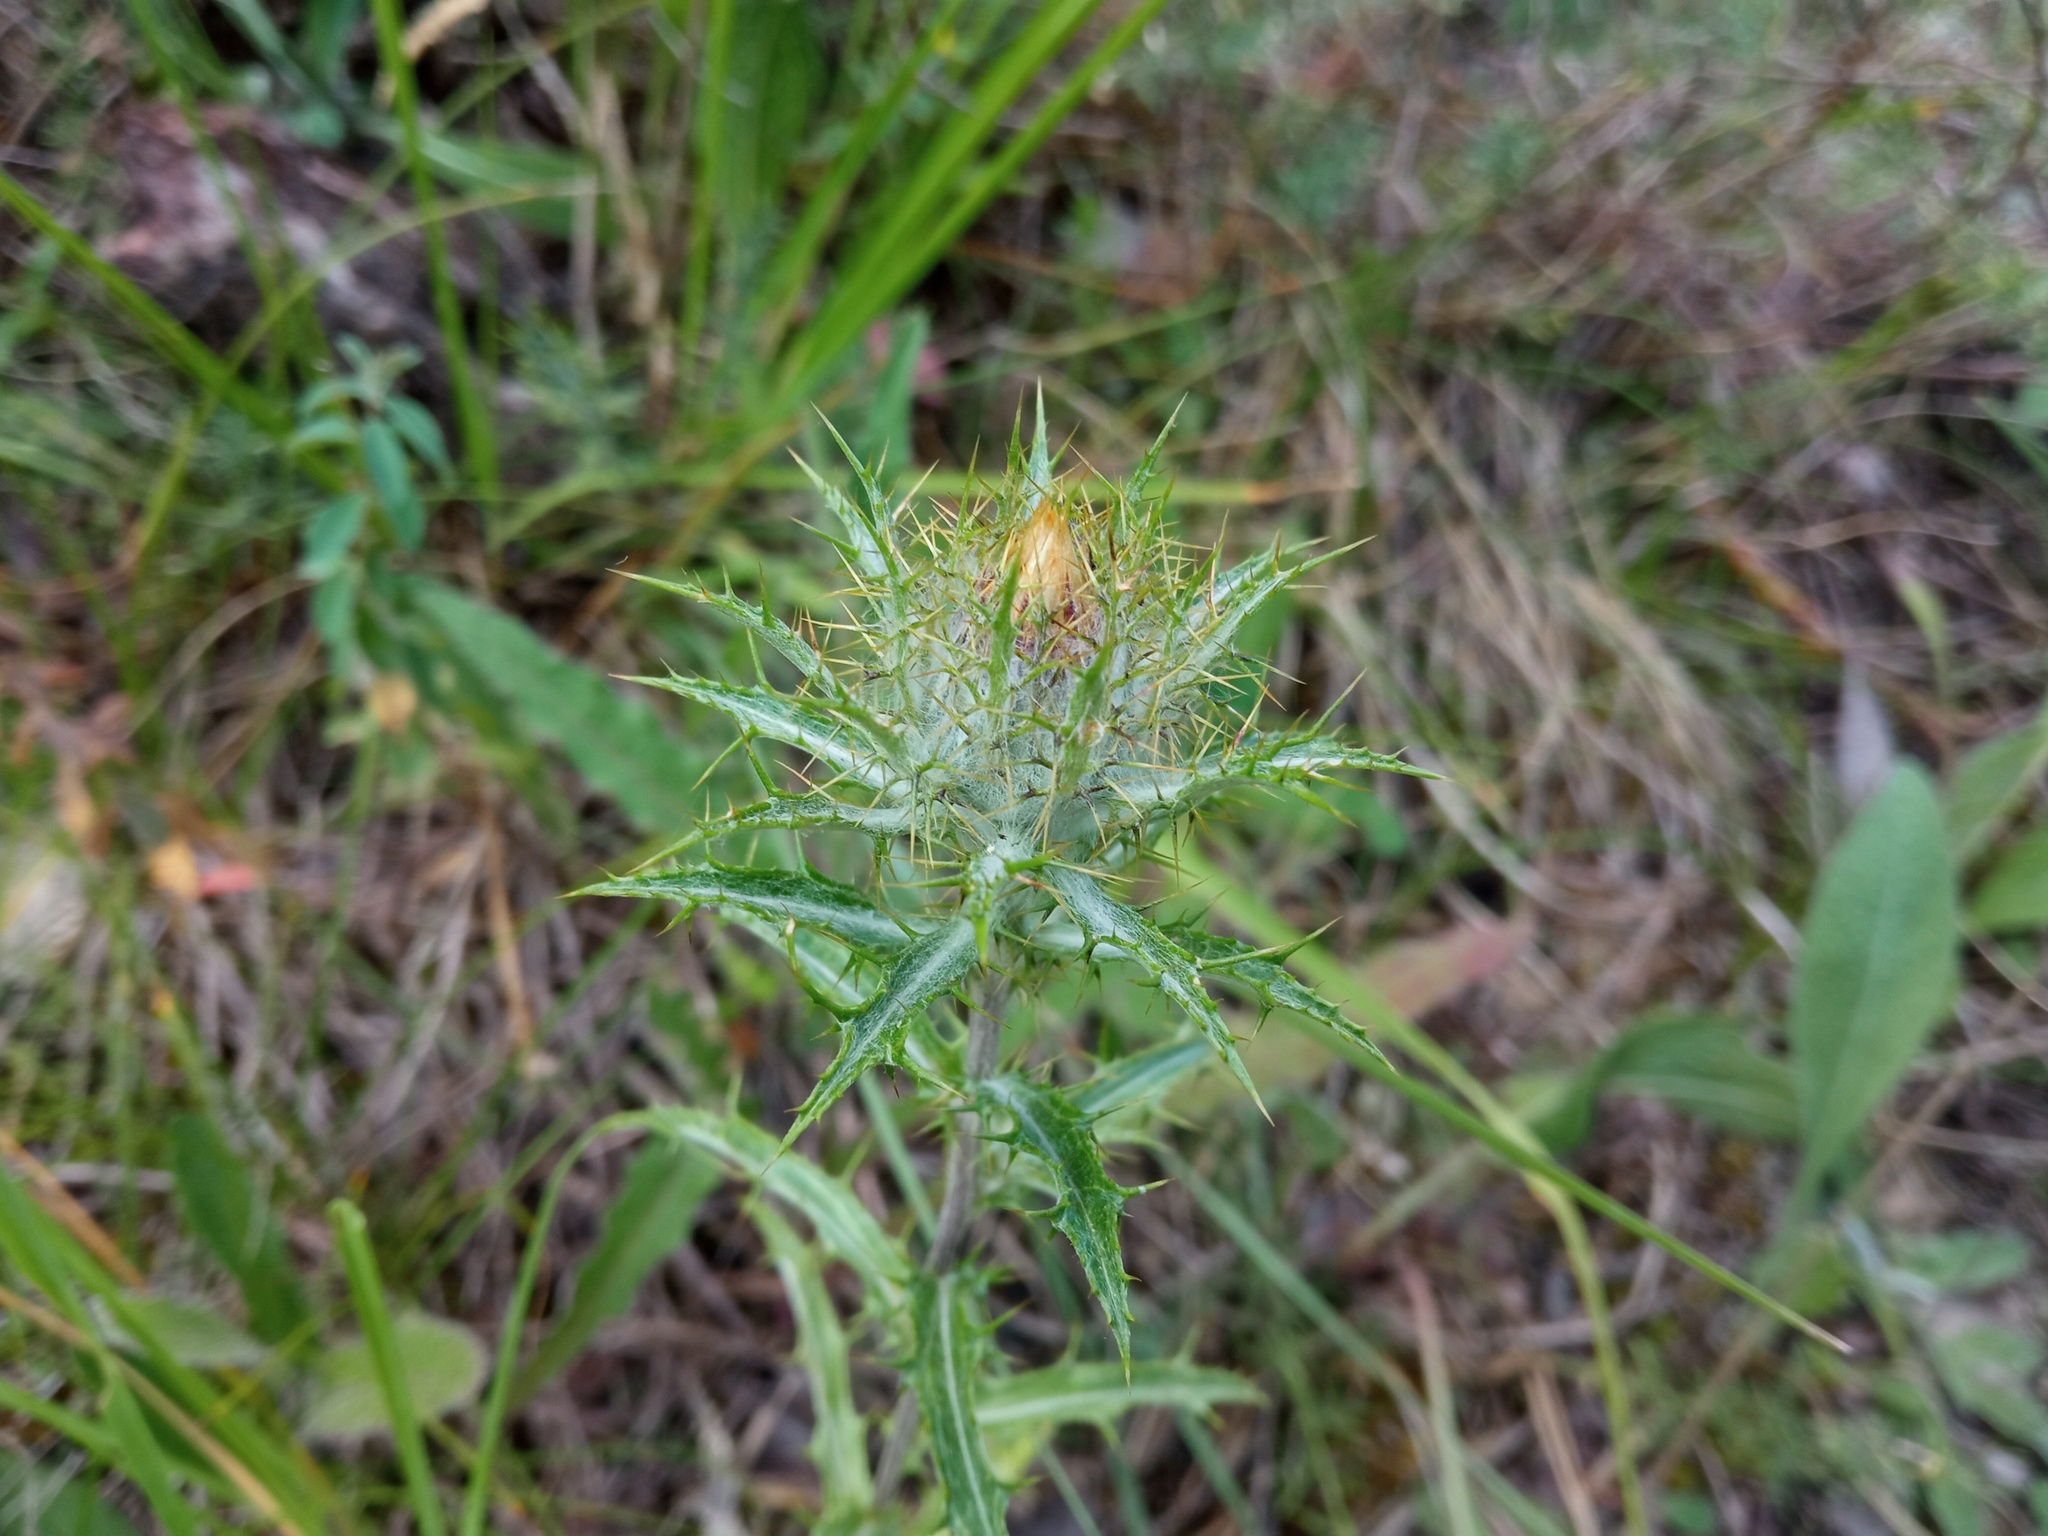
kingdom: Plantae
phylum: Tracheophyta
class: Magnoliopsida
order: Asterales
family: Asteraceae
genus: Carlina
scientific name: Carlina vulgaris
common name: Carline thistle
